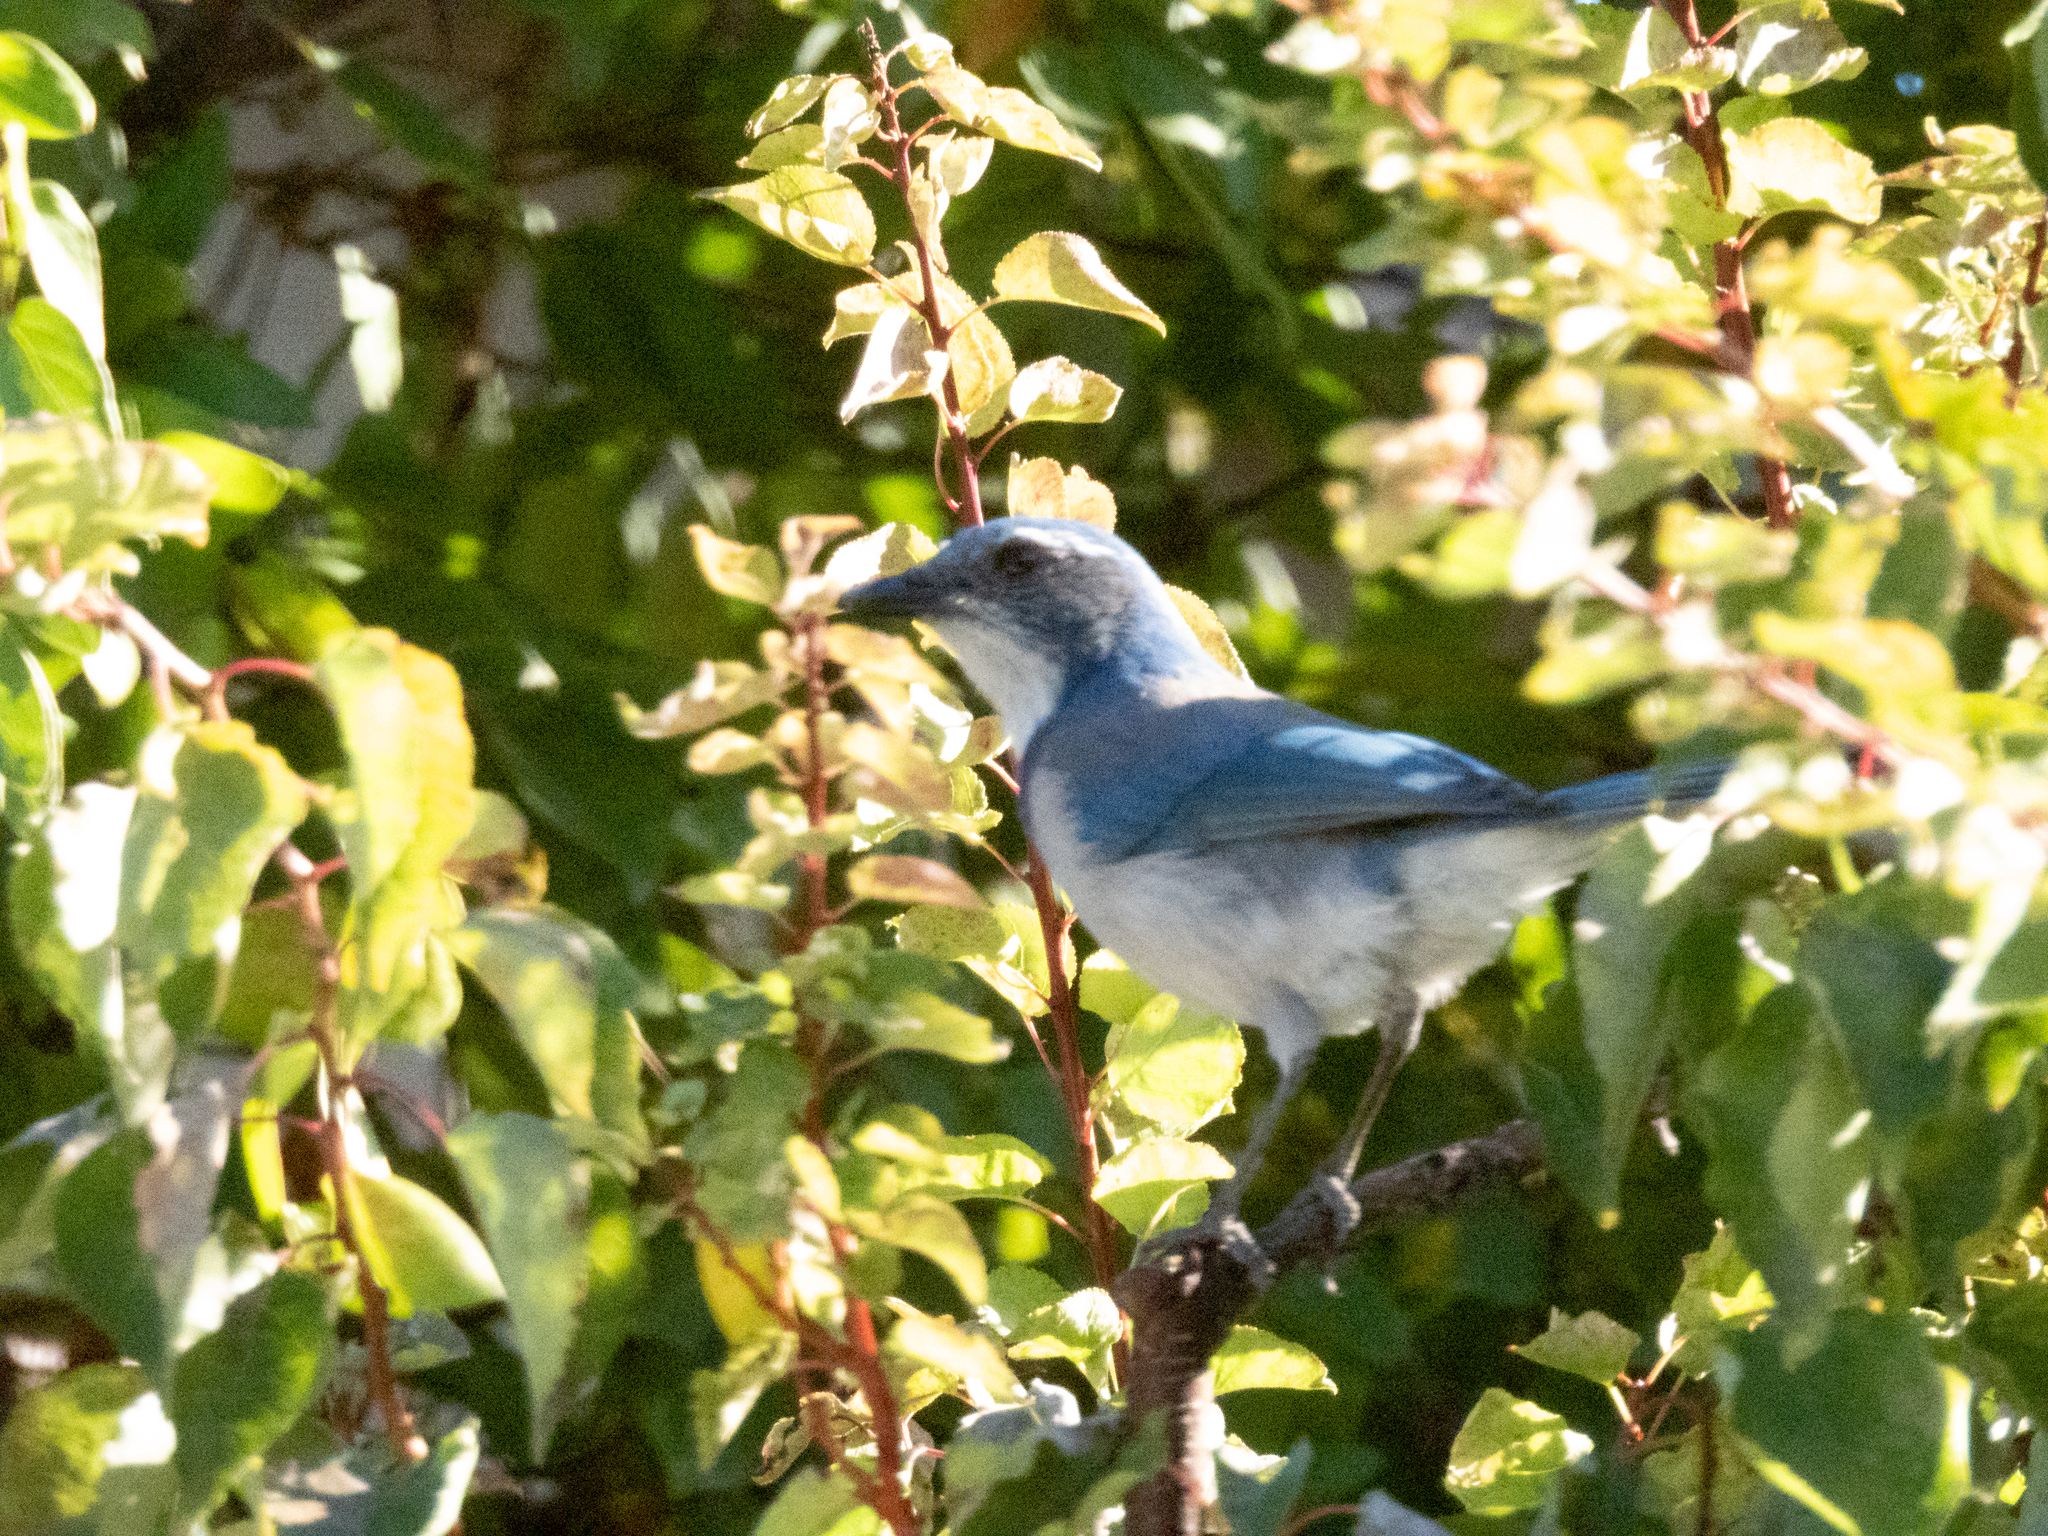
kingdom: Animalia
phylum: Chordata
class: Aves
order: Passeriformes
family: Corvidae
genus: Aphelocoma
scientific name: Aphelocoma californica
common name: California scrub-jay
